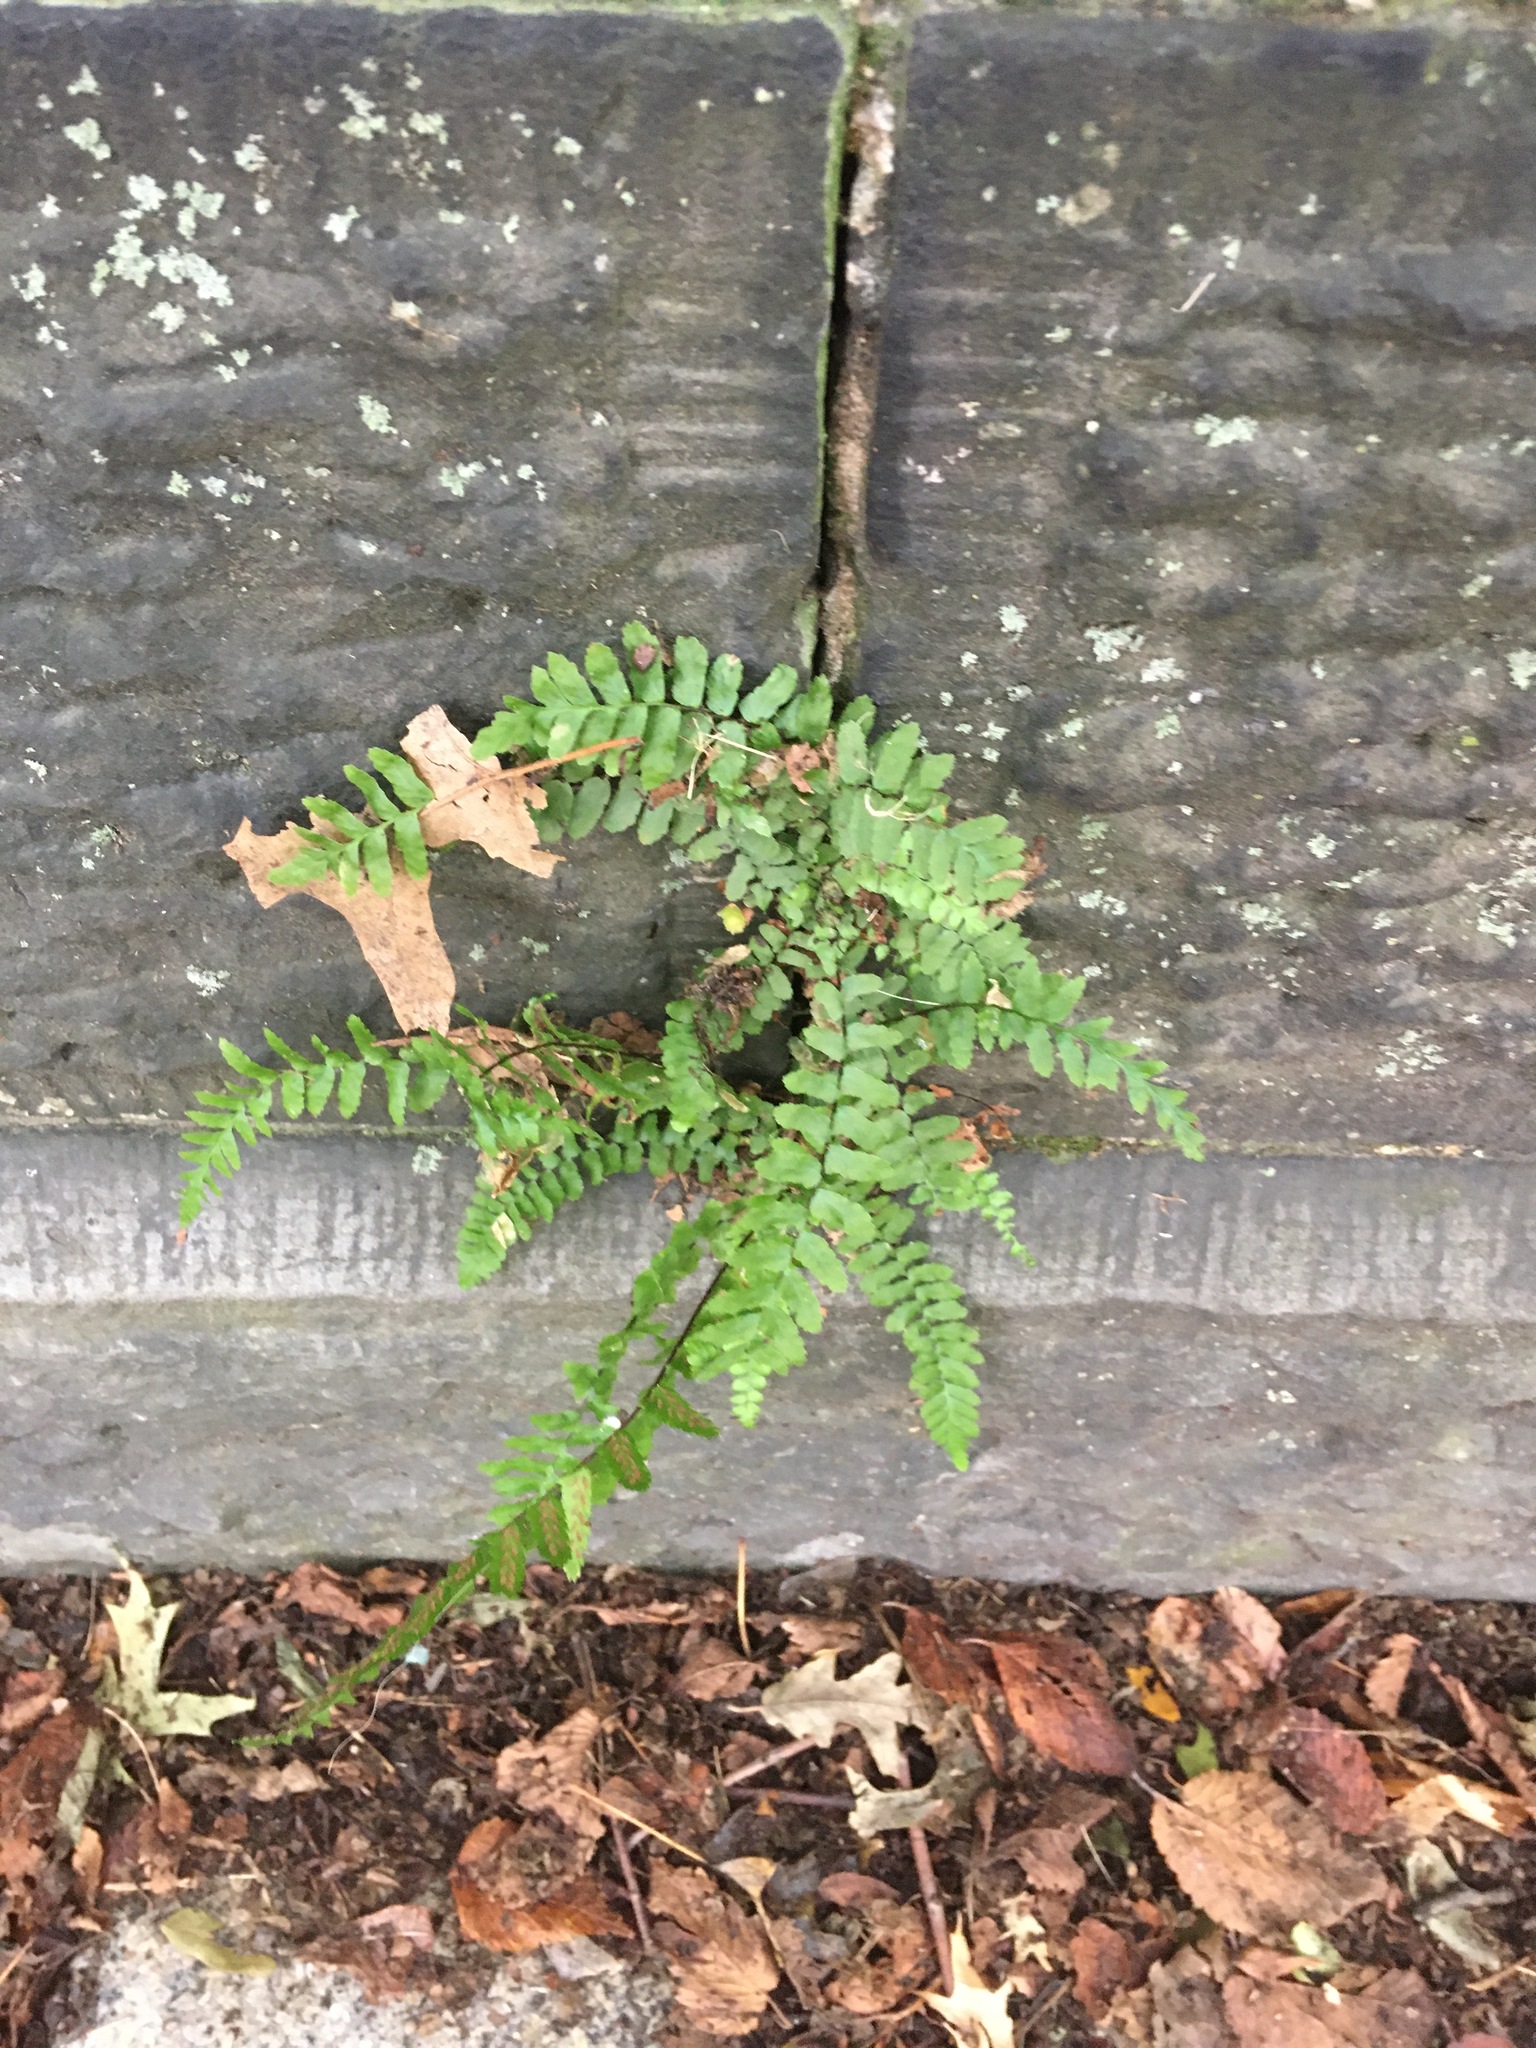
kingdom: Plantae
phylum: Tracheophyta
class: Polypodiopsida
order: Polypodiales
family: Aspleniaceae
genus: Asplenium
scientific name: Asplenium platyneuron
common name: Ebony spleenwort
